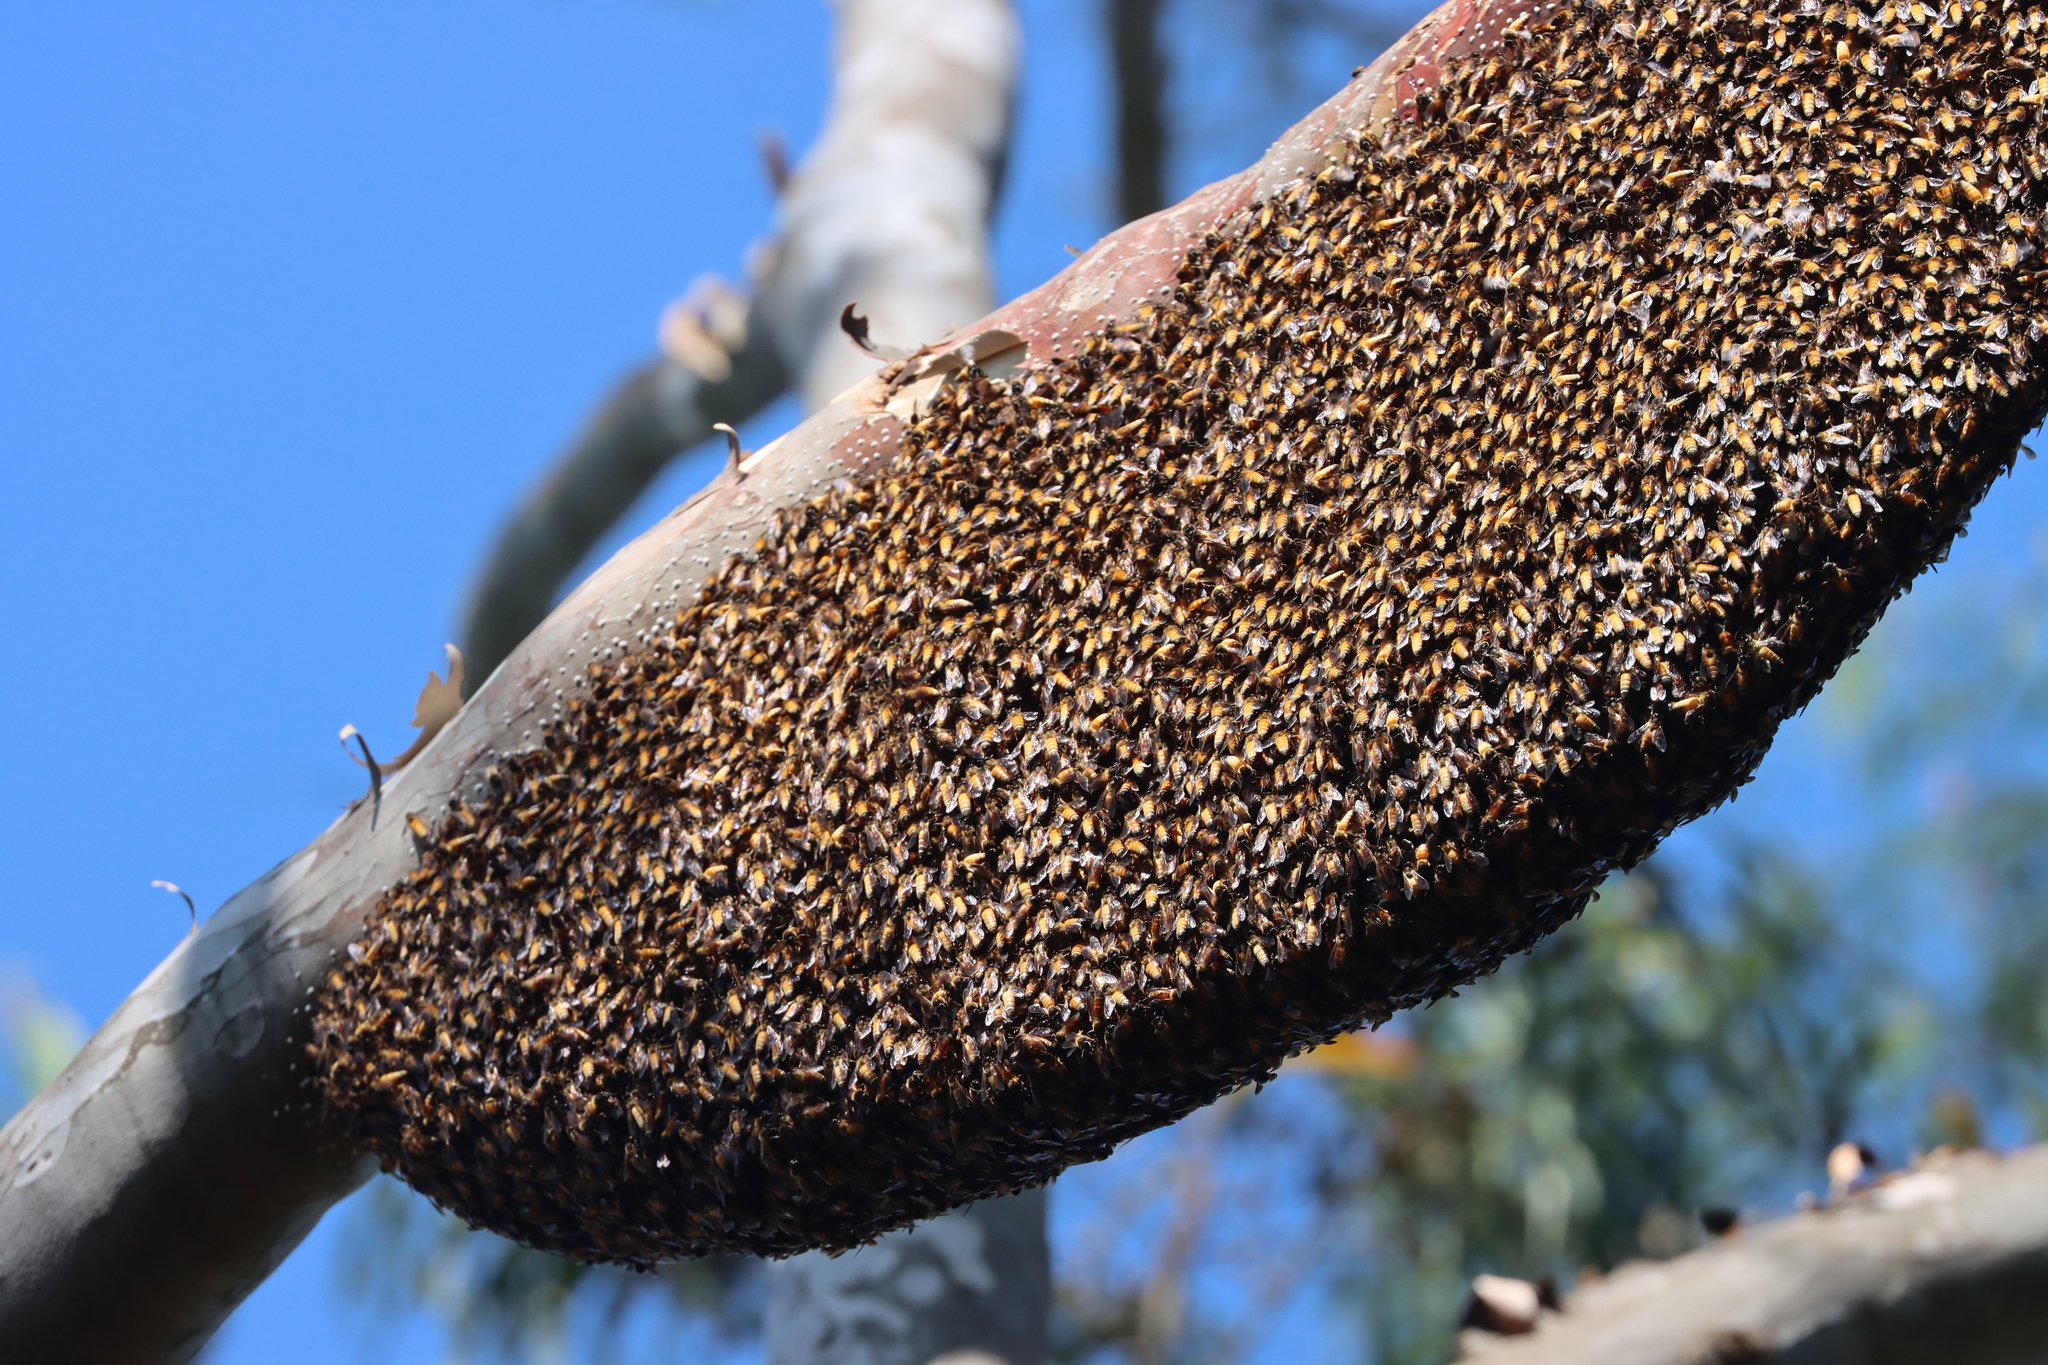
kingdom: Animalia
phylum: Arthropoda
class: Insecta
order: Hymenoptera
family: Apidae
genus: Apis
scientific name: Apis dorsata
